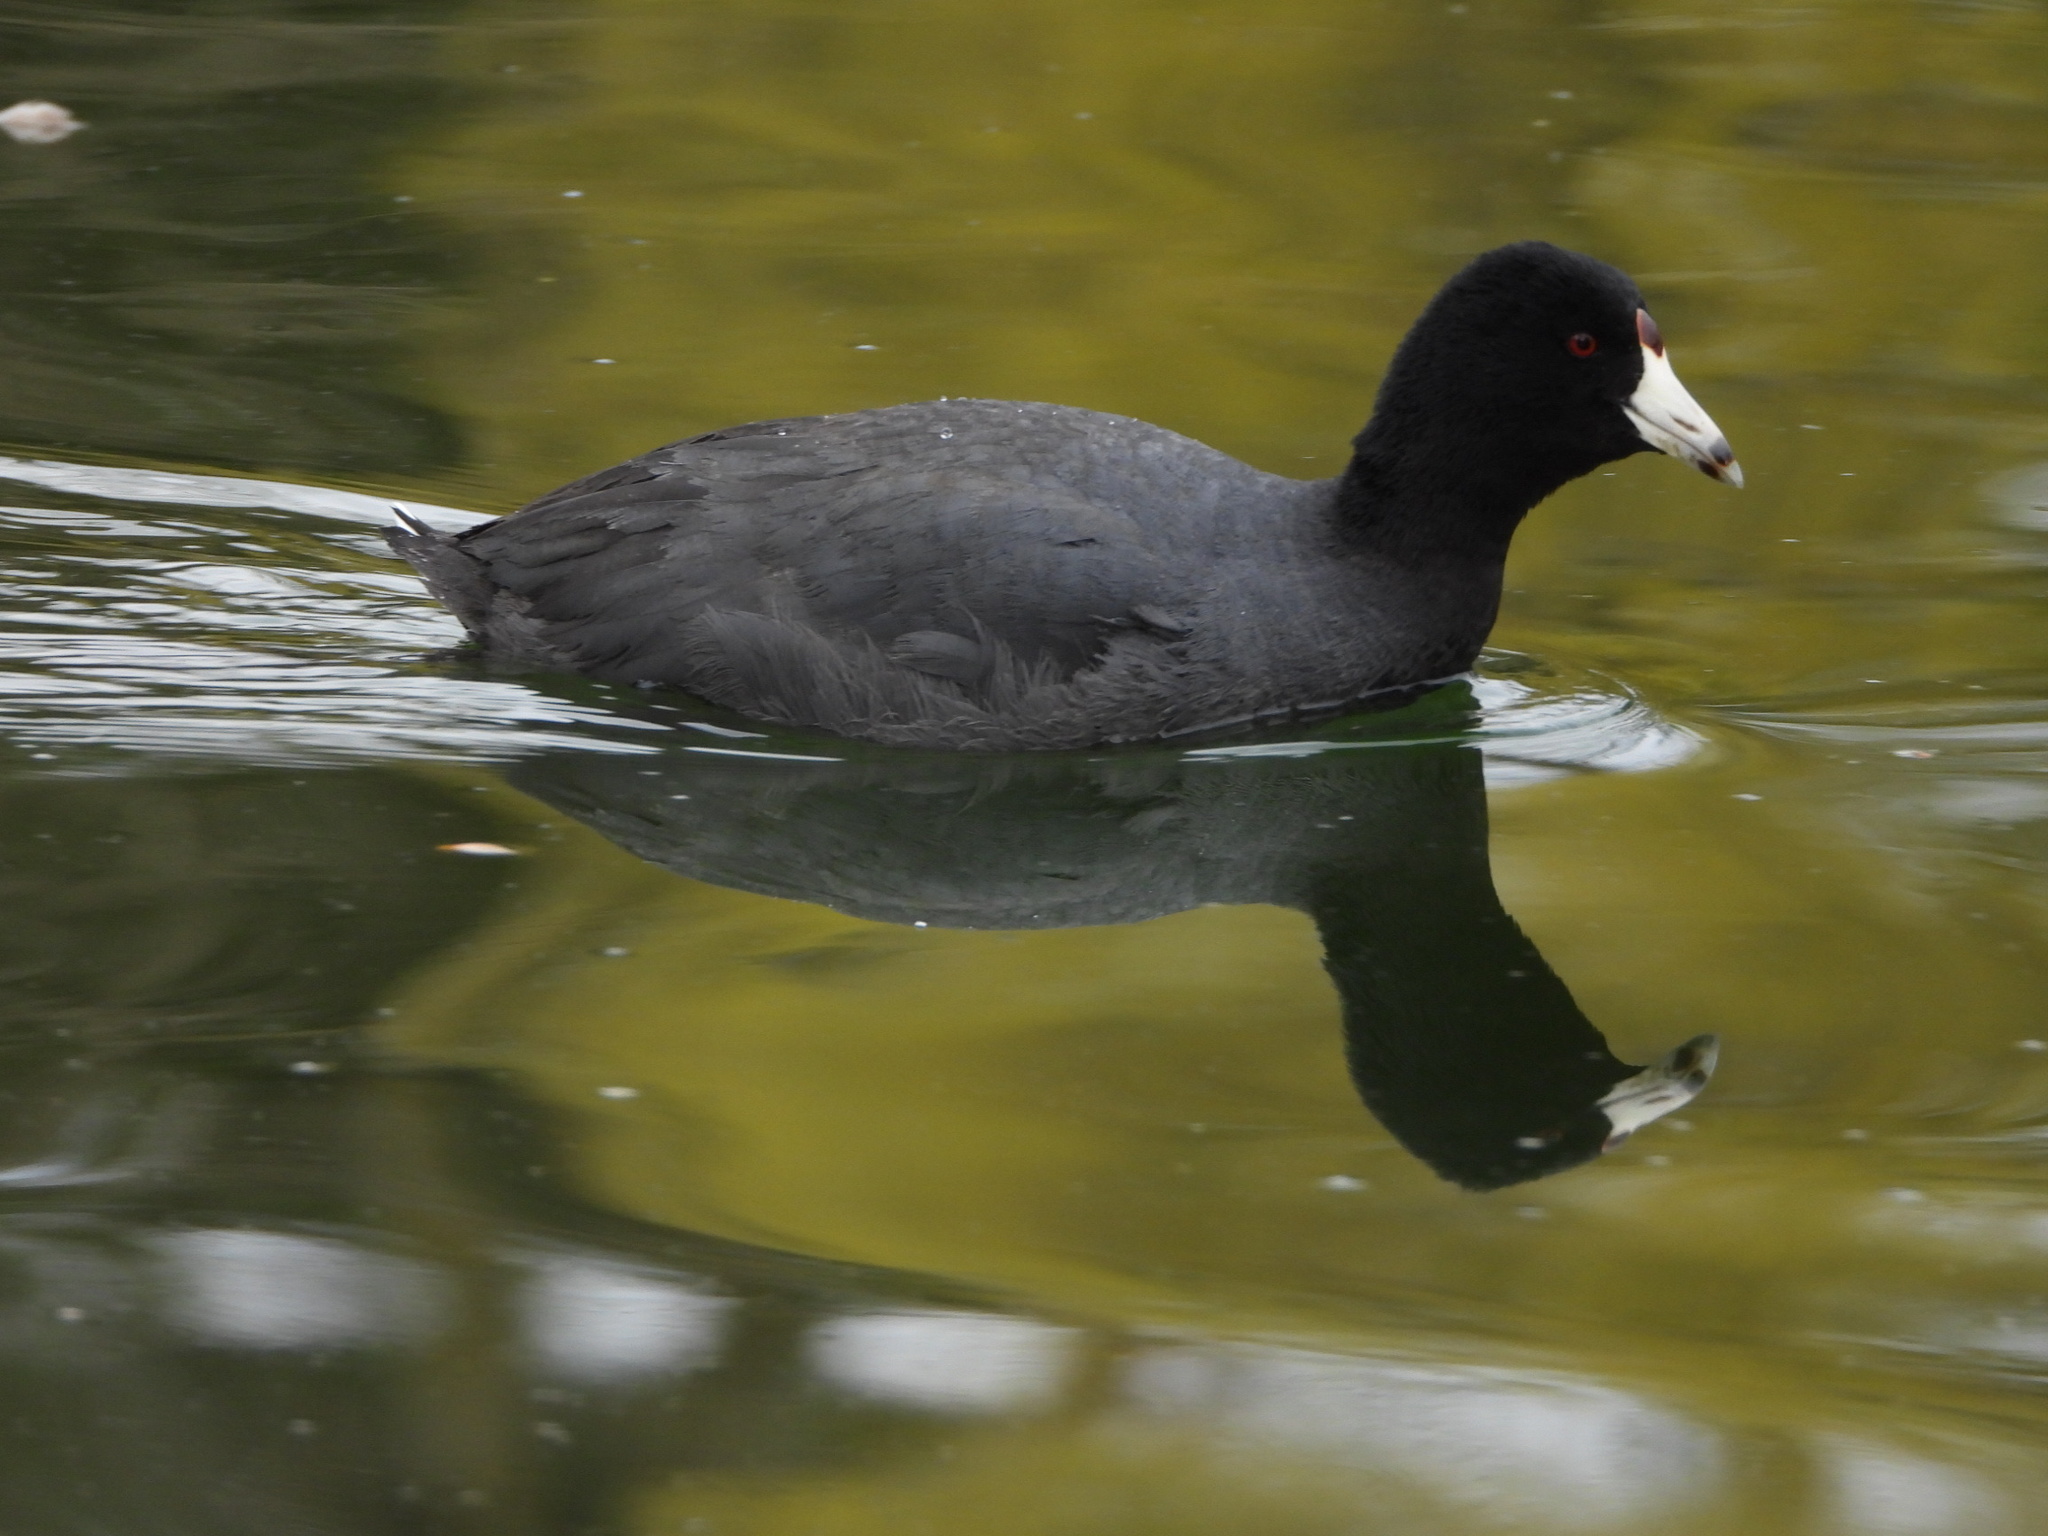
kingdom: Animalia
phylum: Chordata
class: Aves
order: Gruiformes
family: Rallidae
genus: Fulica
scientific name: Fulica americana
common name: American coot
